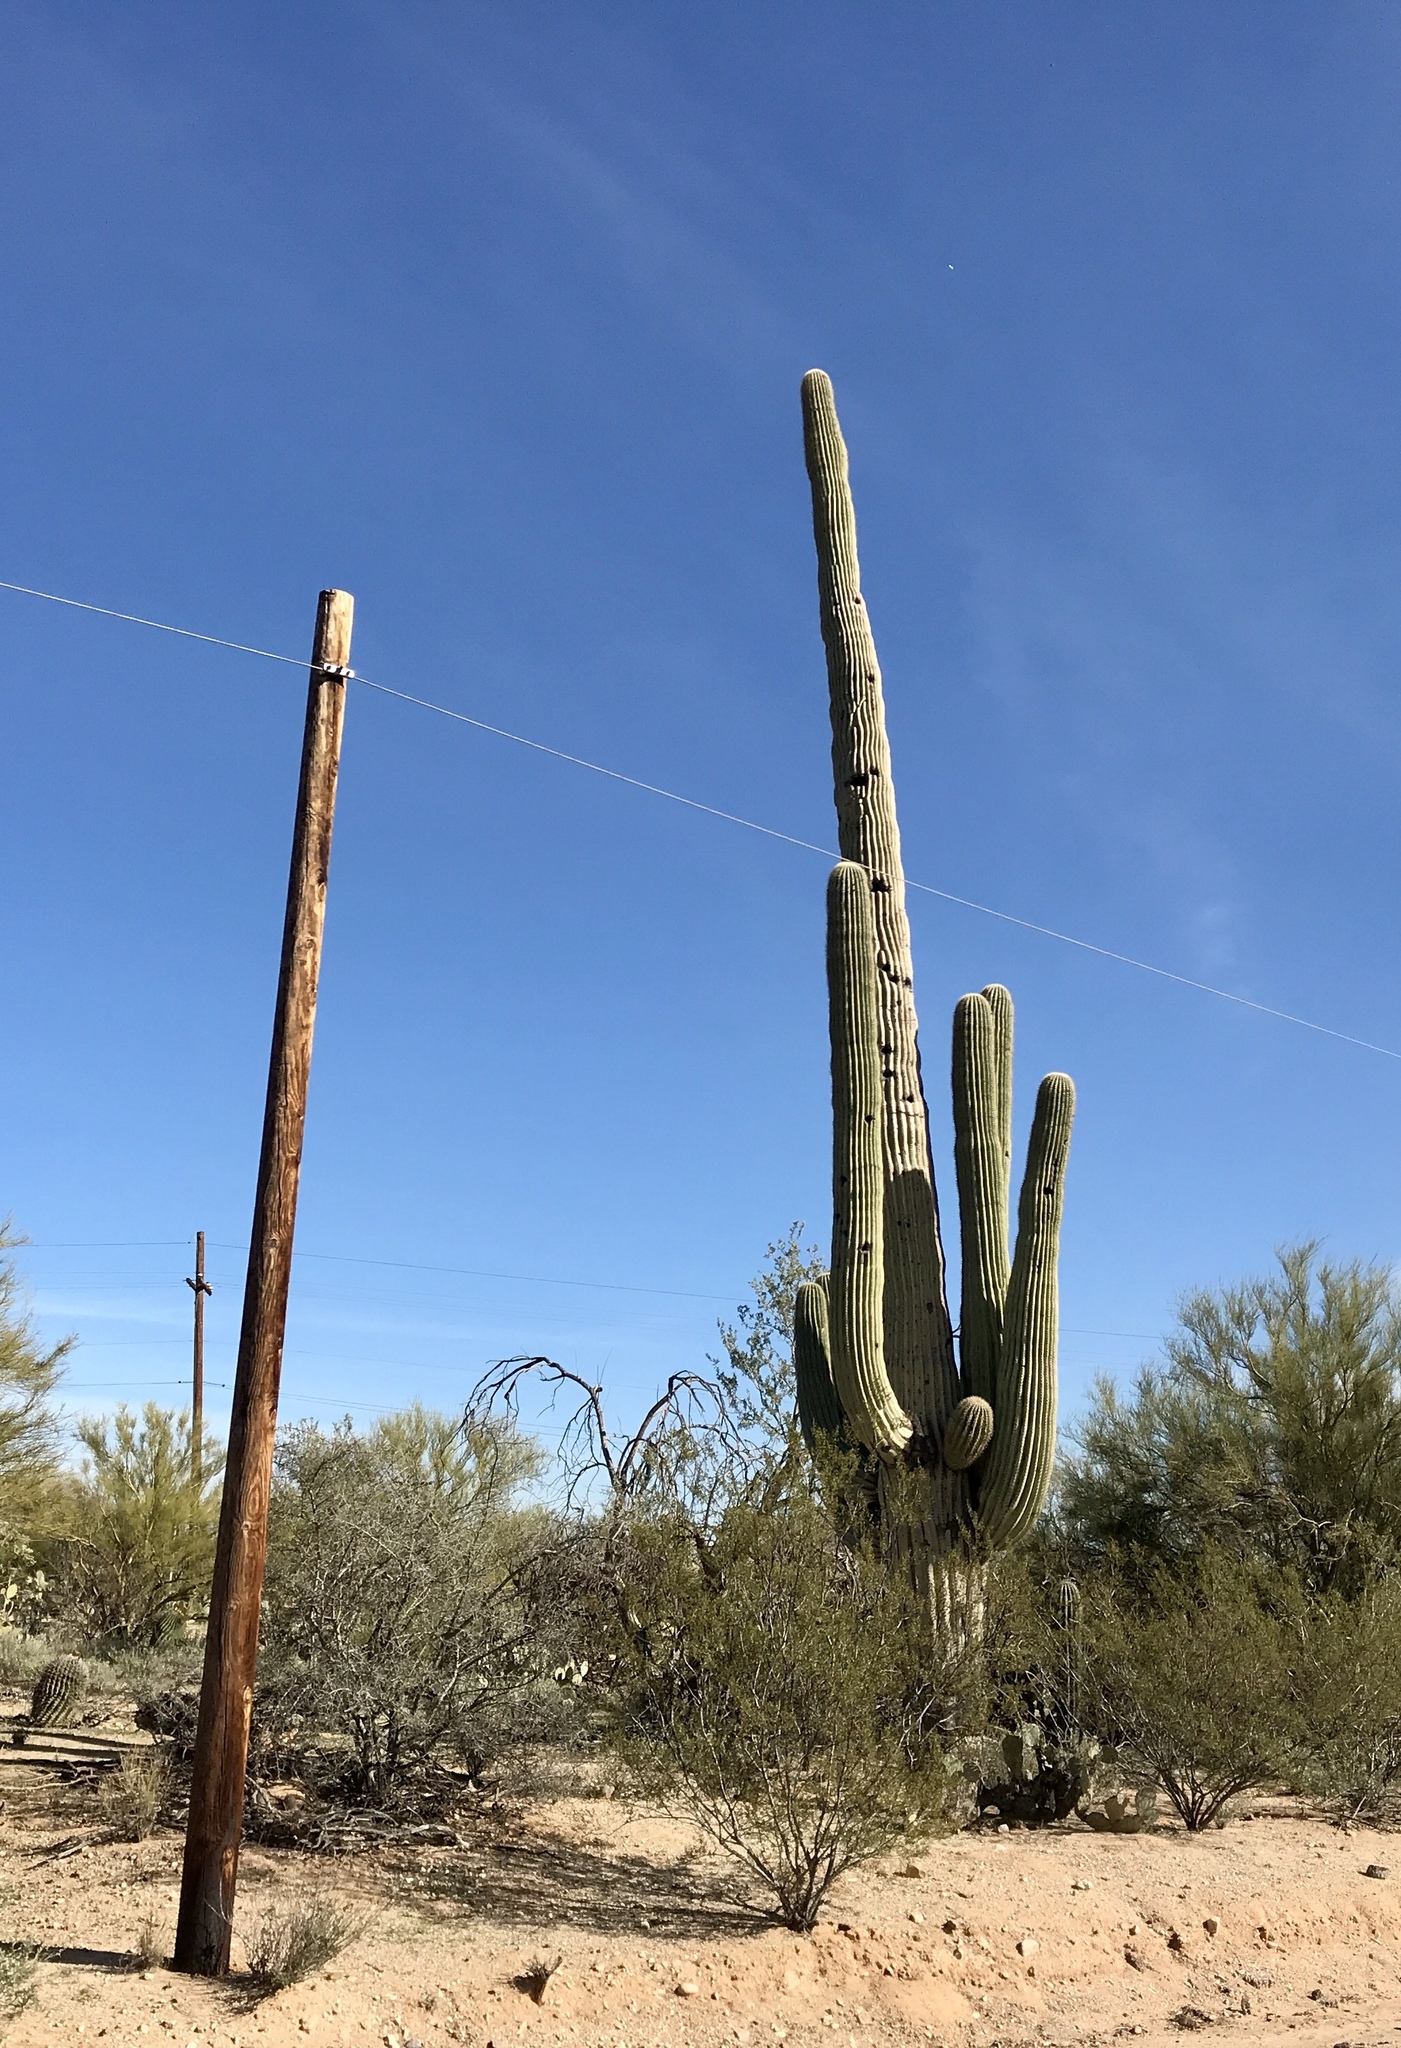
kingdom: Plantae
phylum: Tracheophyta
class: Magnoliopsida
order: Caryophyllales
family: Cactaceae
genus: Carnegiea
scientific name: Carnegiea gigantea
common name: Saguaro
